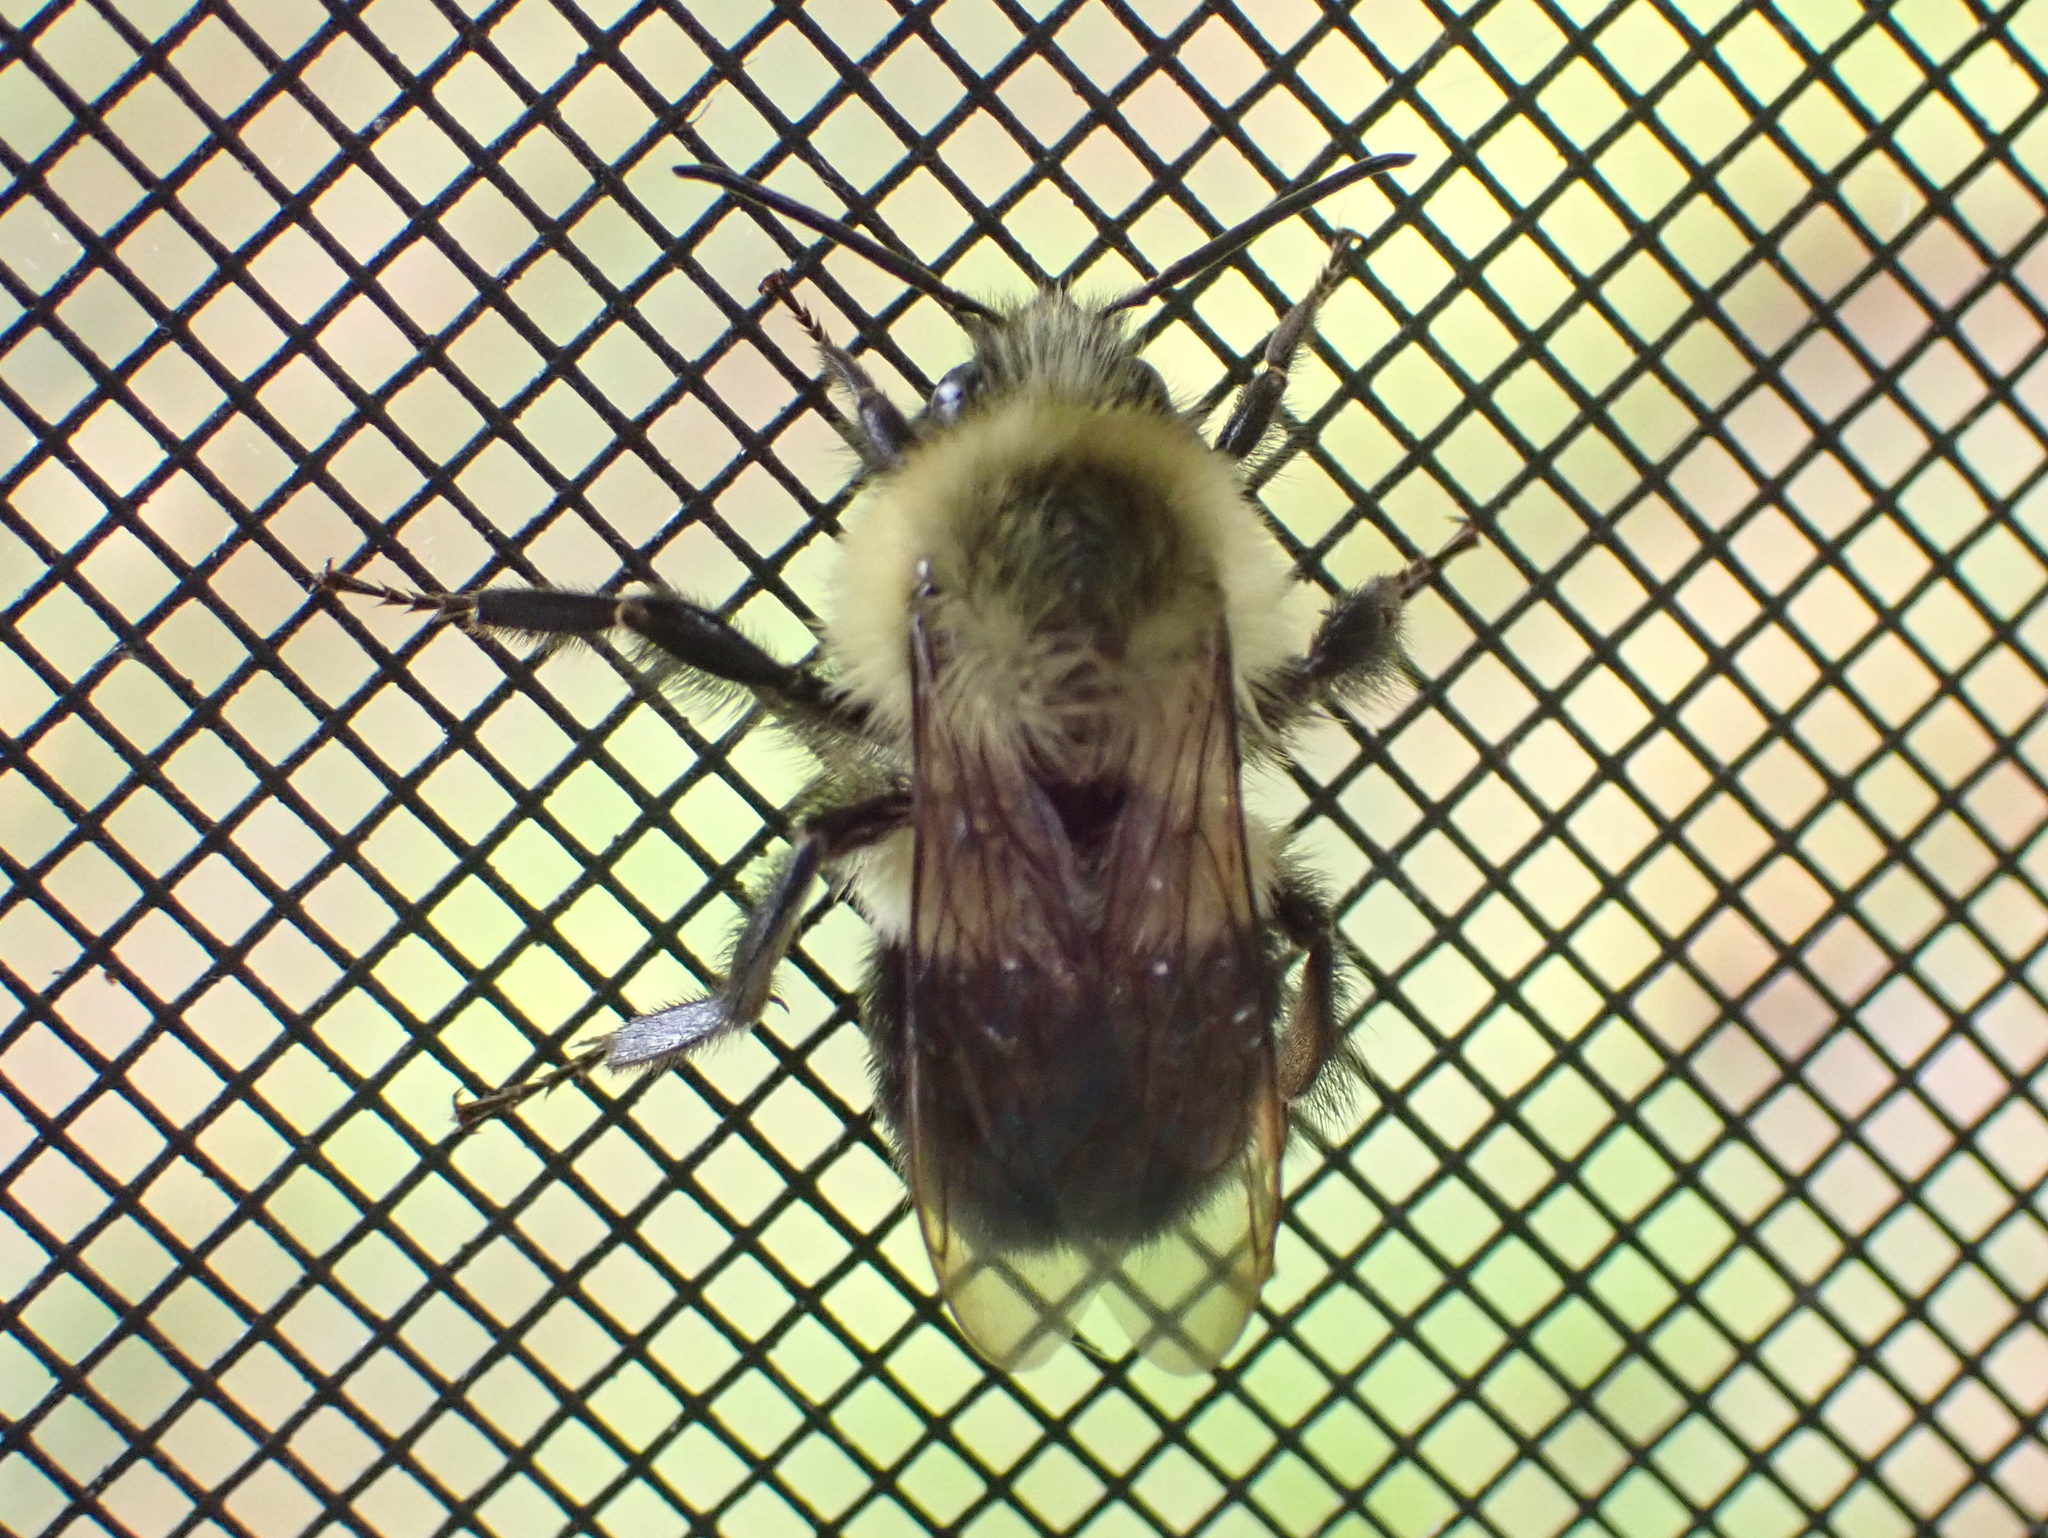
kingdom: Animalia
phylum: Arthropoda
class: Insecta
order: Hymenoptera
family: Apidae
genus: Bombus
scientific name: Bombus impatiens
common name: Common eastern bumble bee
